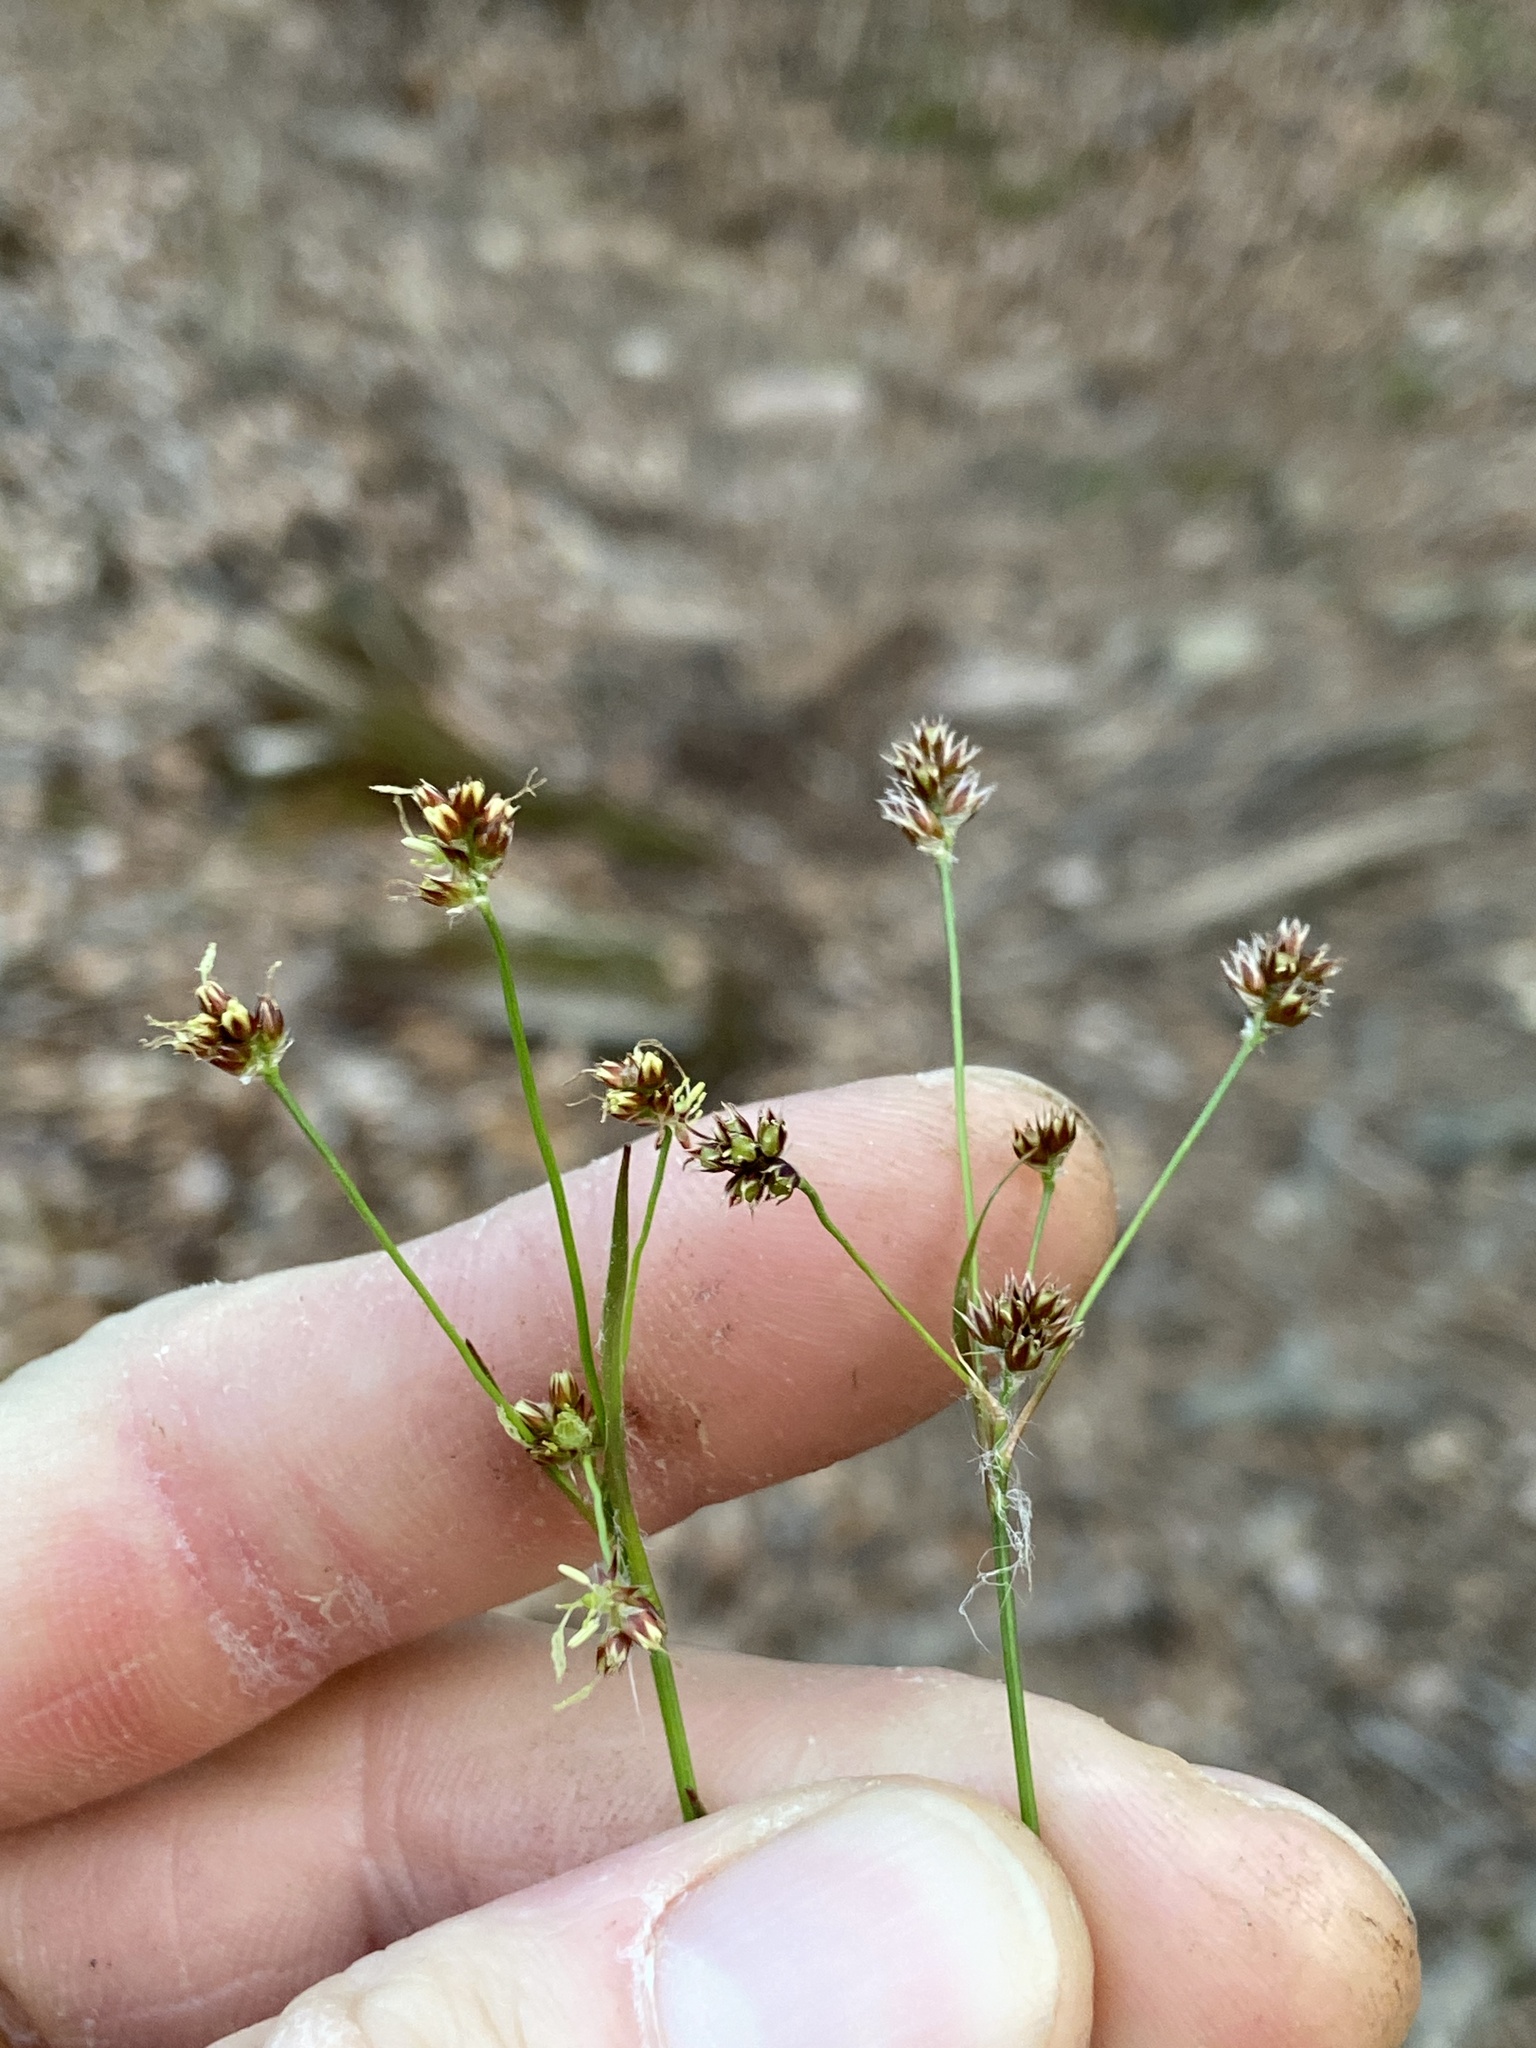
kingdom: Plantae
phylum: Tracheophyta
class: Liliopsida
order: Poales
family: Juncaceae
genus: Luzula
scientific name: Luzula echinata
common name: Hedgehog woodrush
